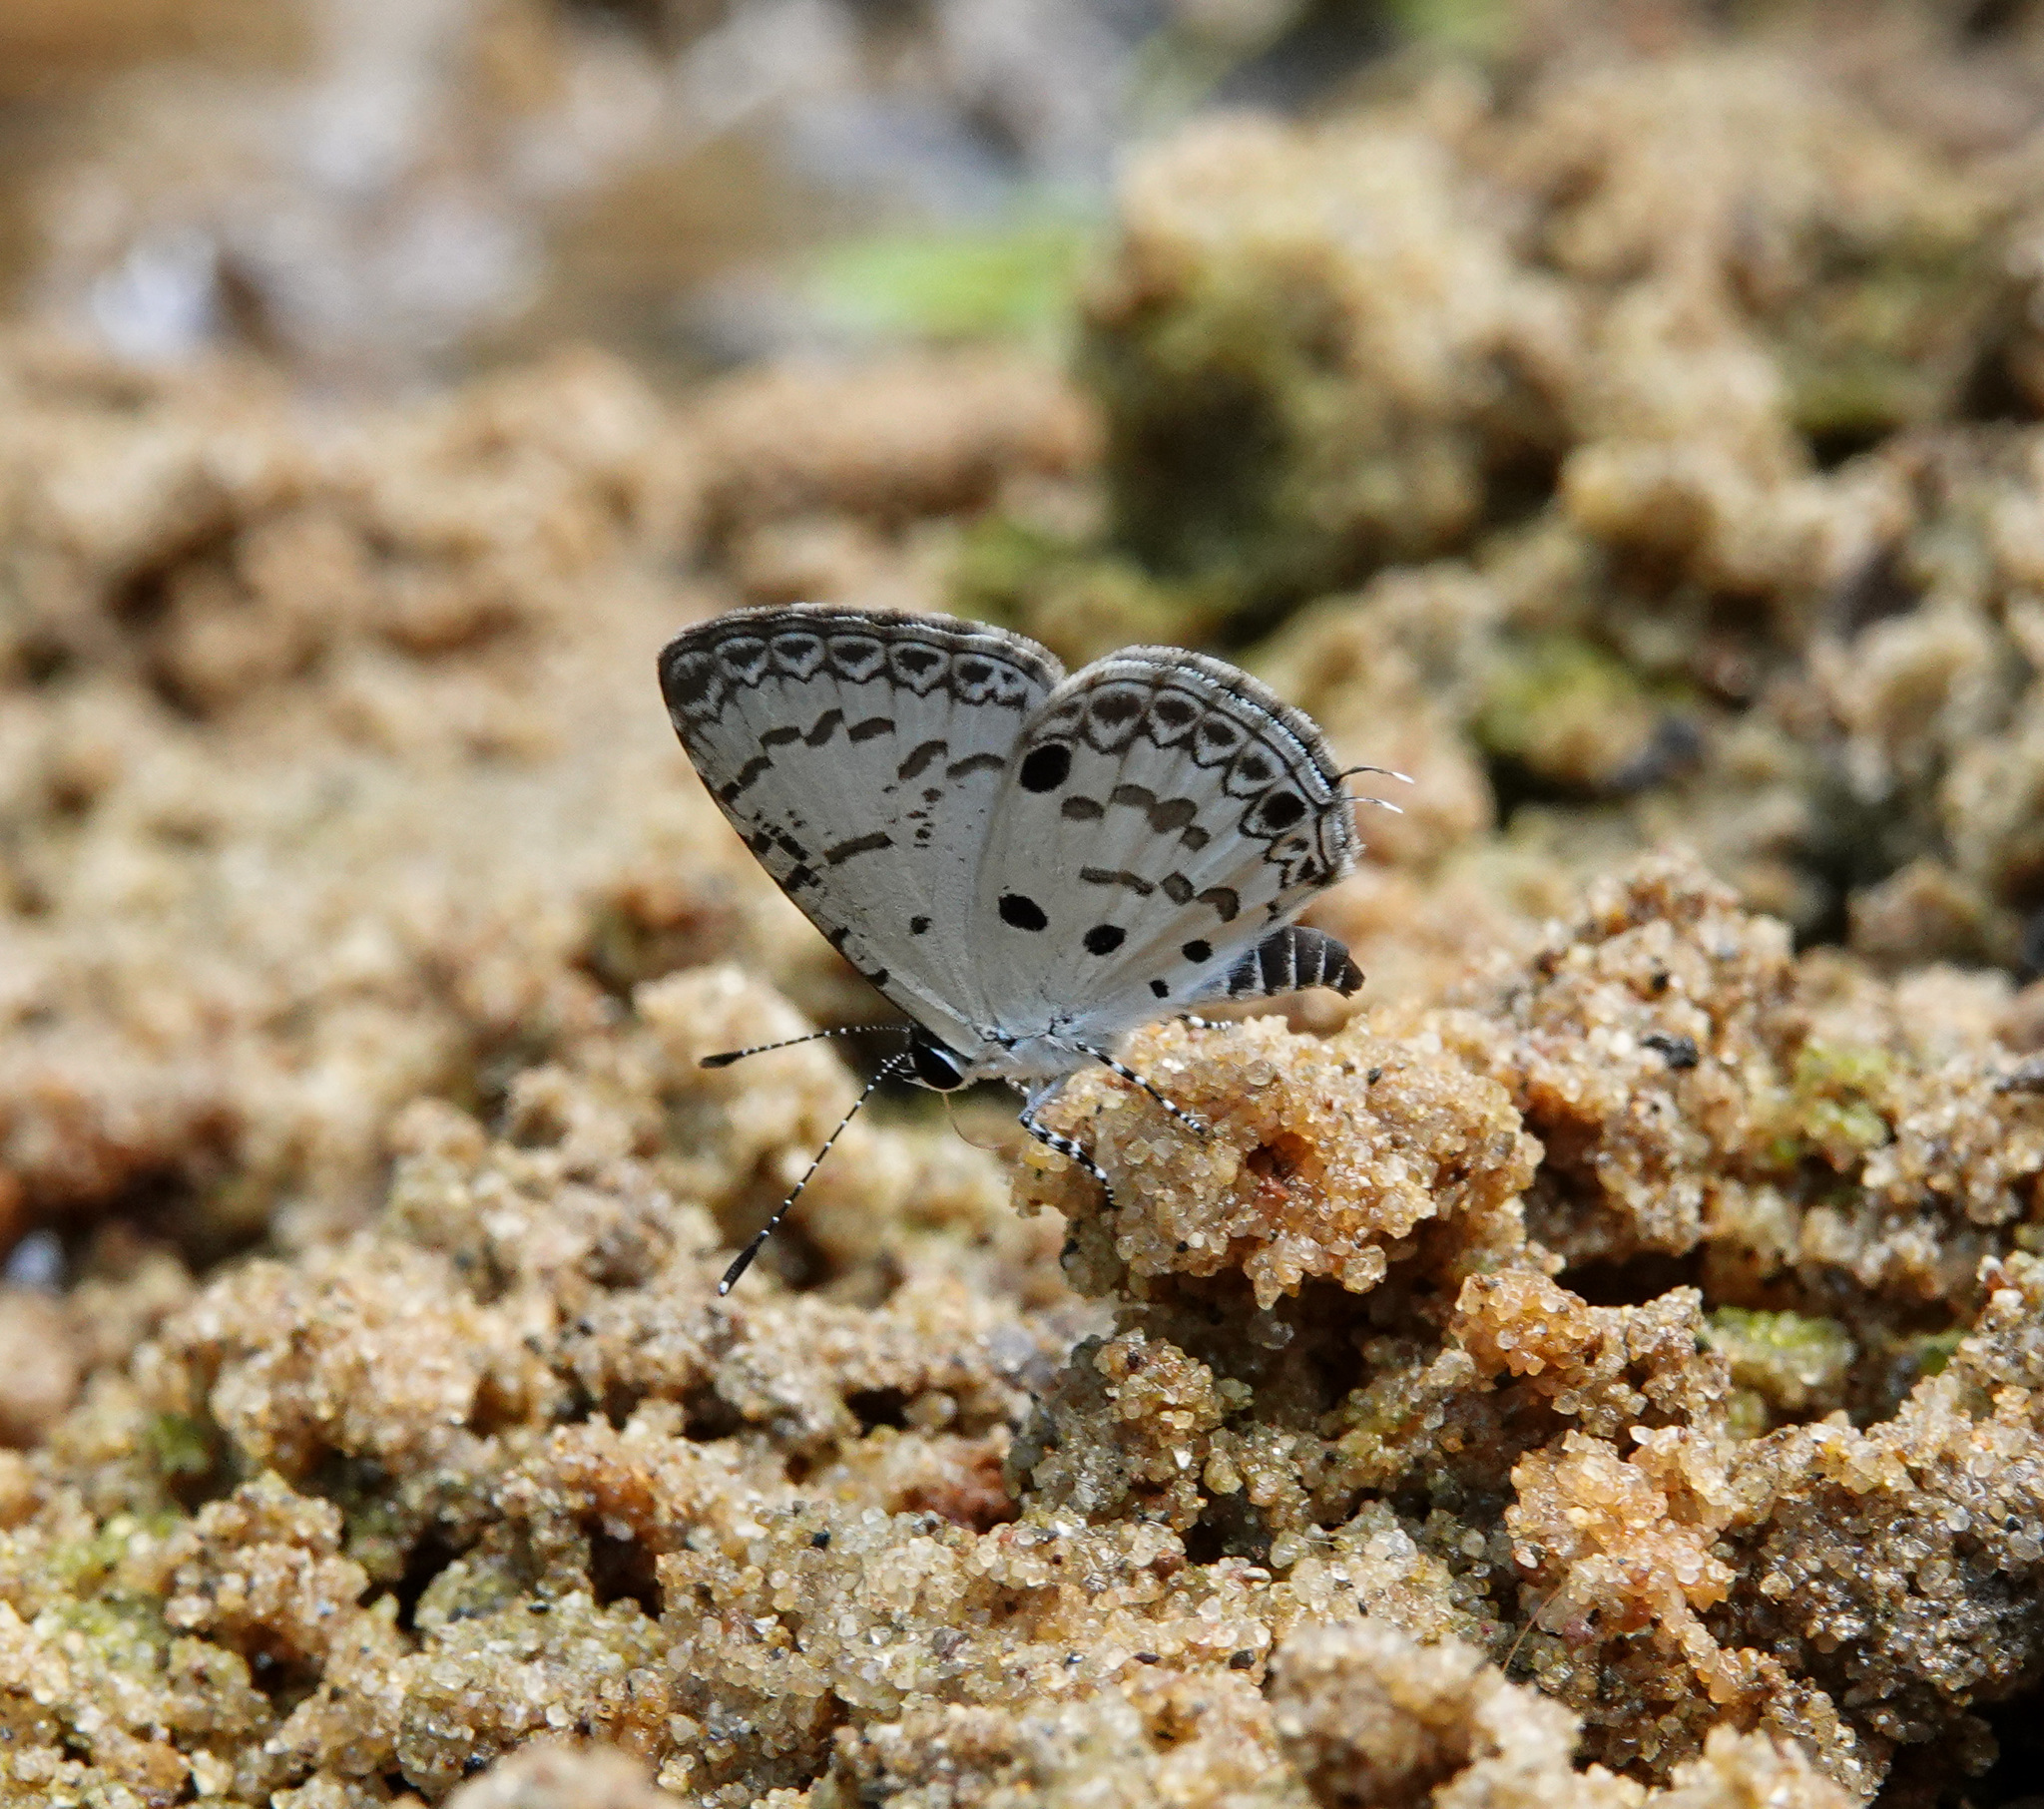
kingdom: Animalia
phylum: Arthropoda
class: Insecta
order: Lepidoptera
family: Lycaenidae
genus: Megisba
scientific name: Megisba malaya
